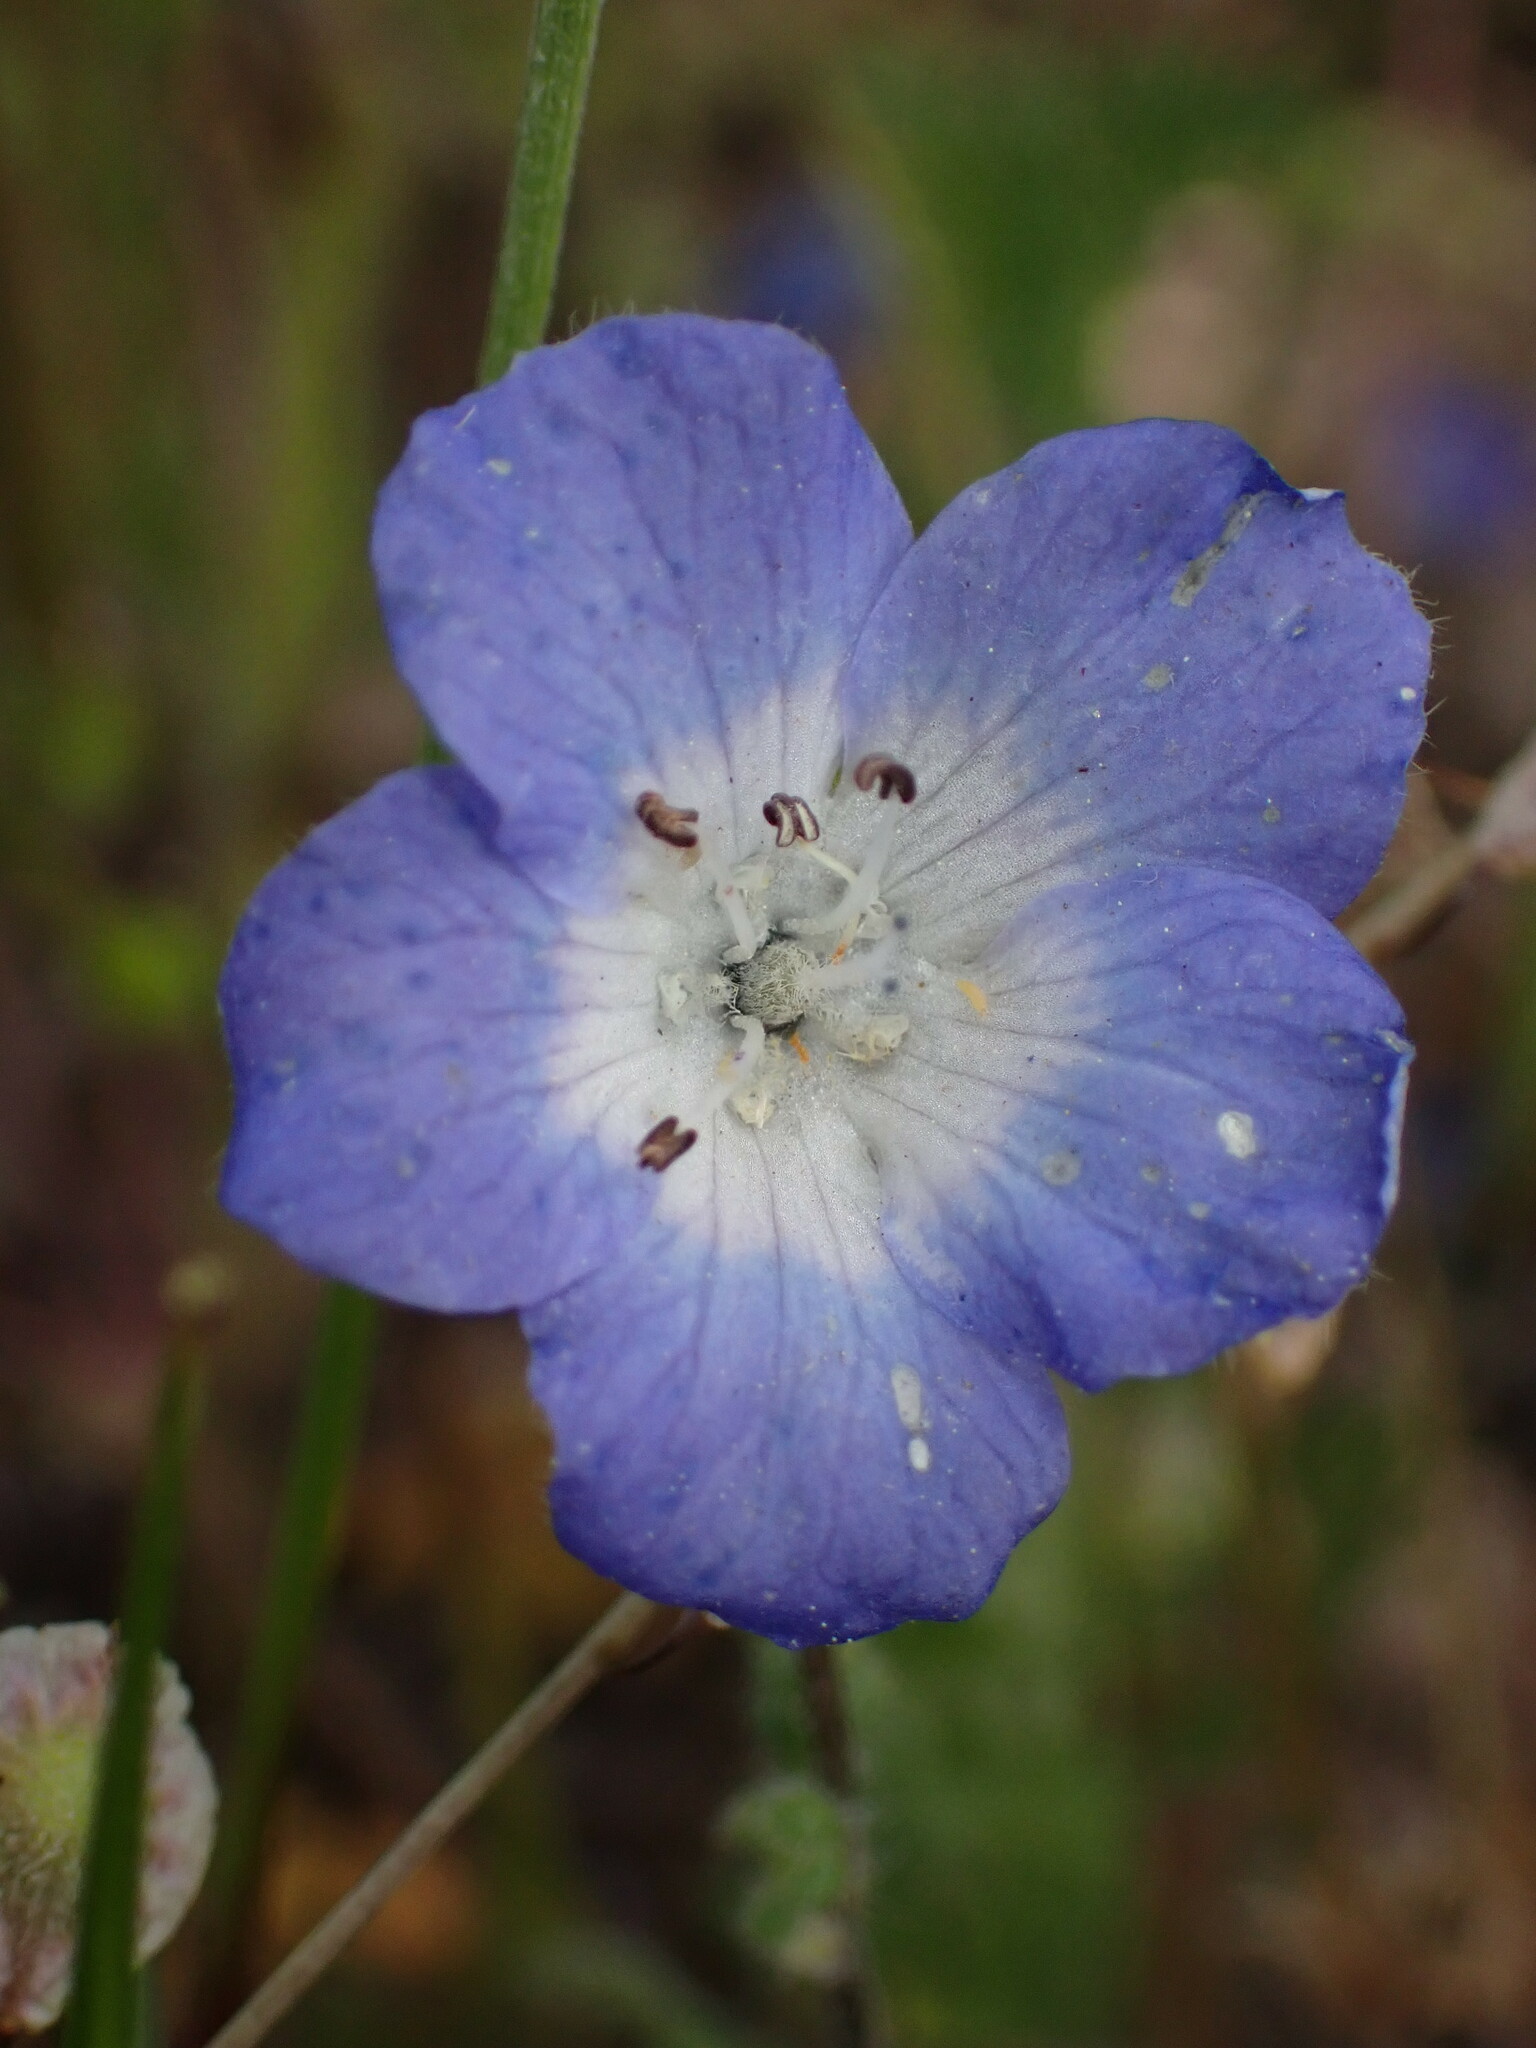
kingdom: Plantae
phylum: Tracheophyta
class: Magnoliopsida
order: Boraginales
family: Hydrophyllaceae
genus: Nemophila
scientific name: Nemophila menziesii
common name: Baby's-blue-eyes
